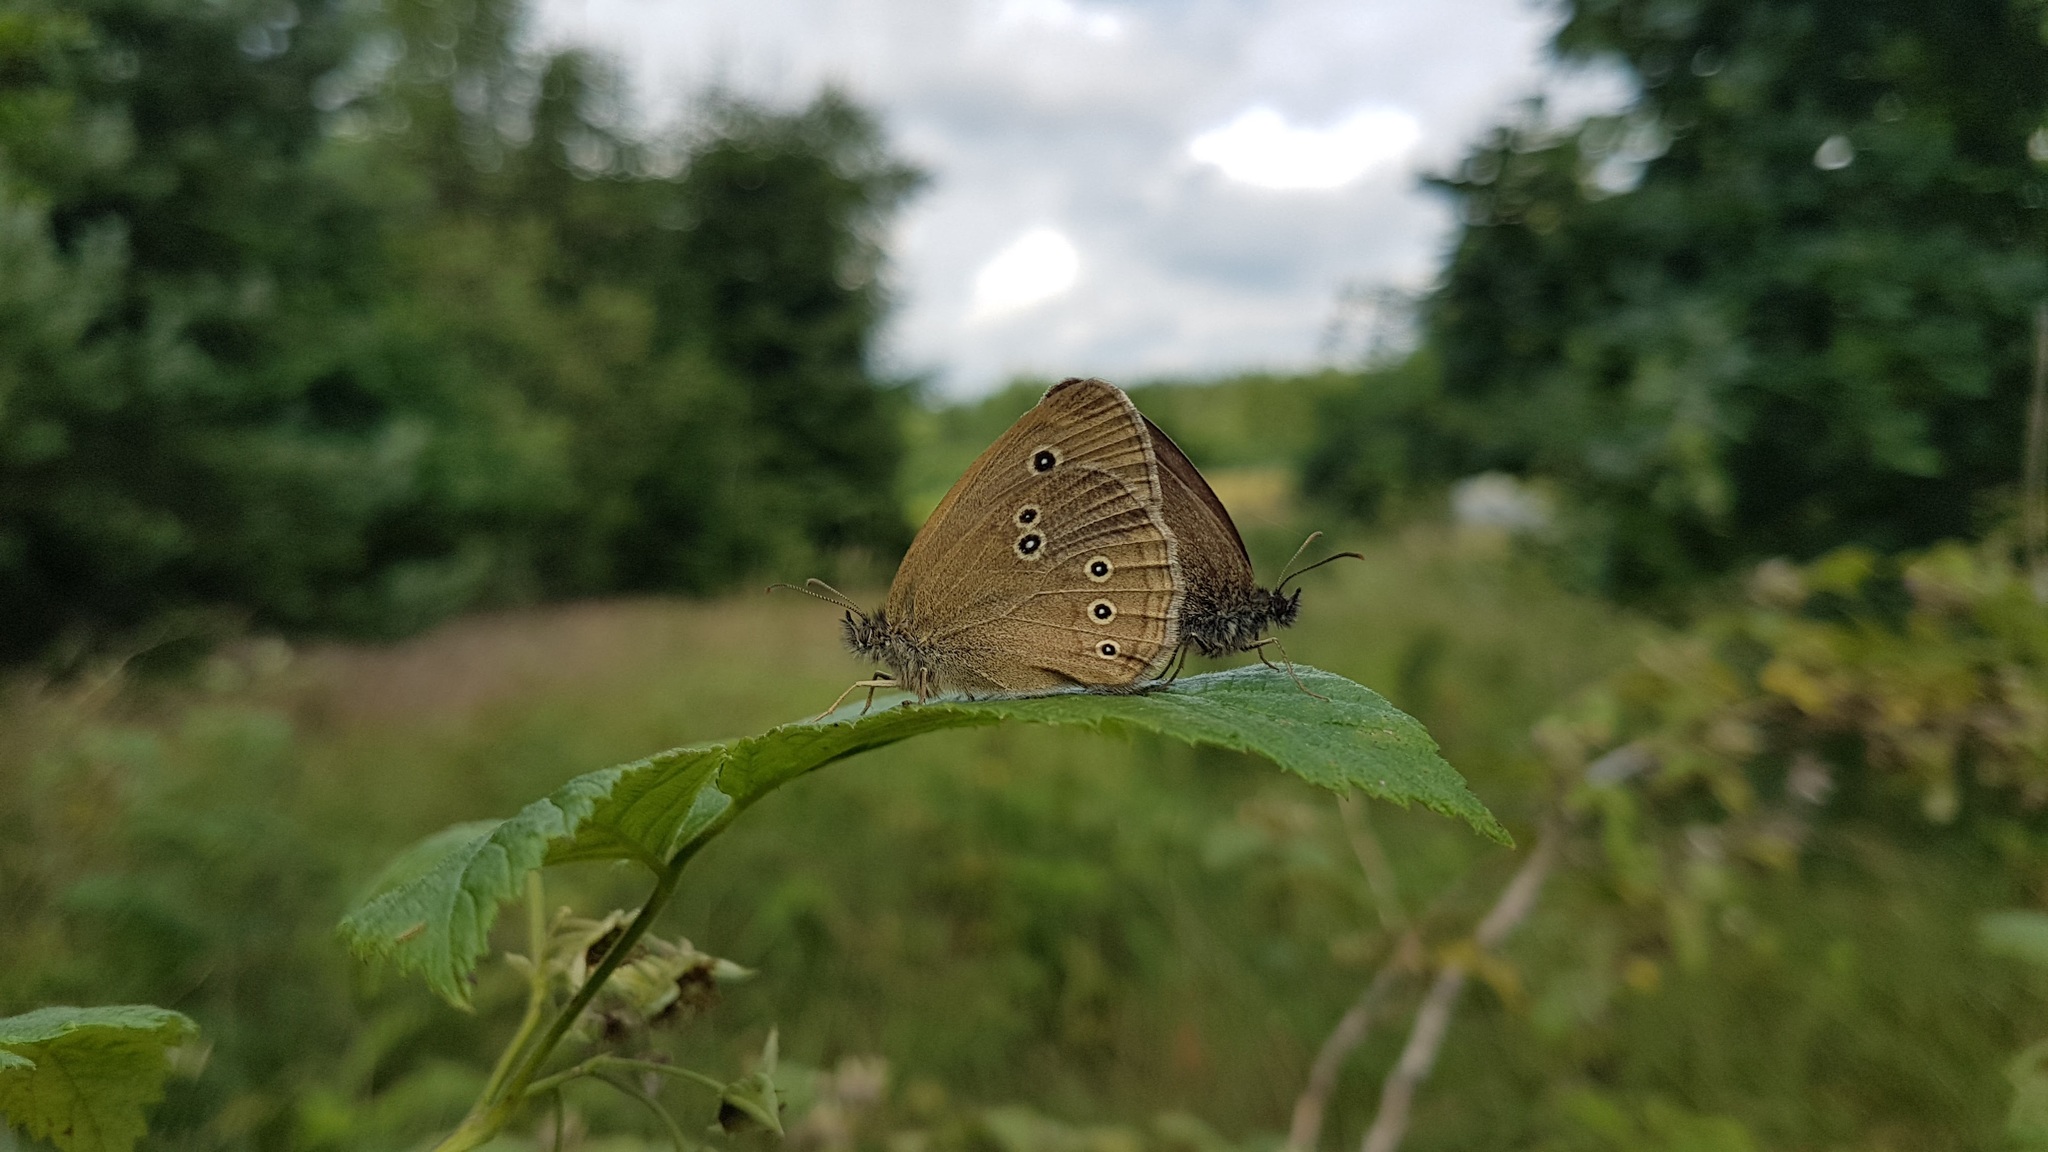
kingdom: Animalia
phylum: Arthropoda
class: Insecta
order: Lepidoptera
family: Nymphalidae
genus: Aphantopus
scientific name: Aphantopus hyperantus
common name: Ringlet
